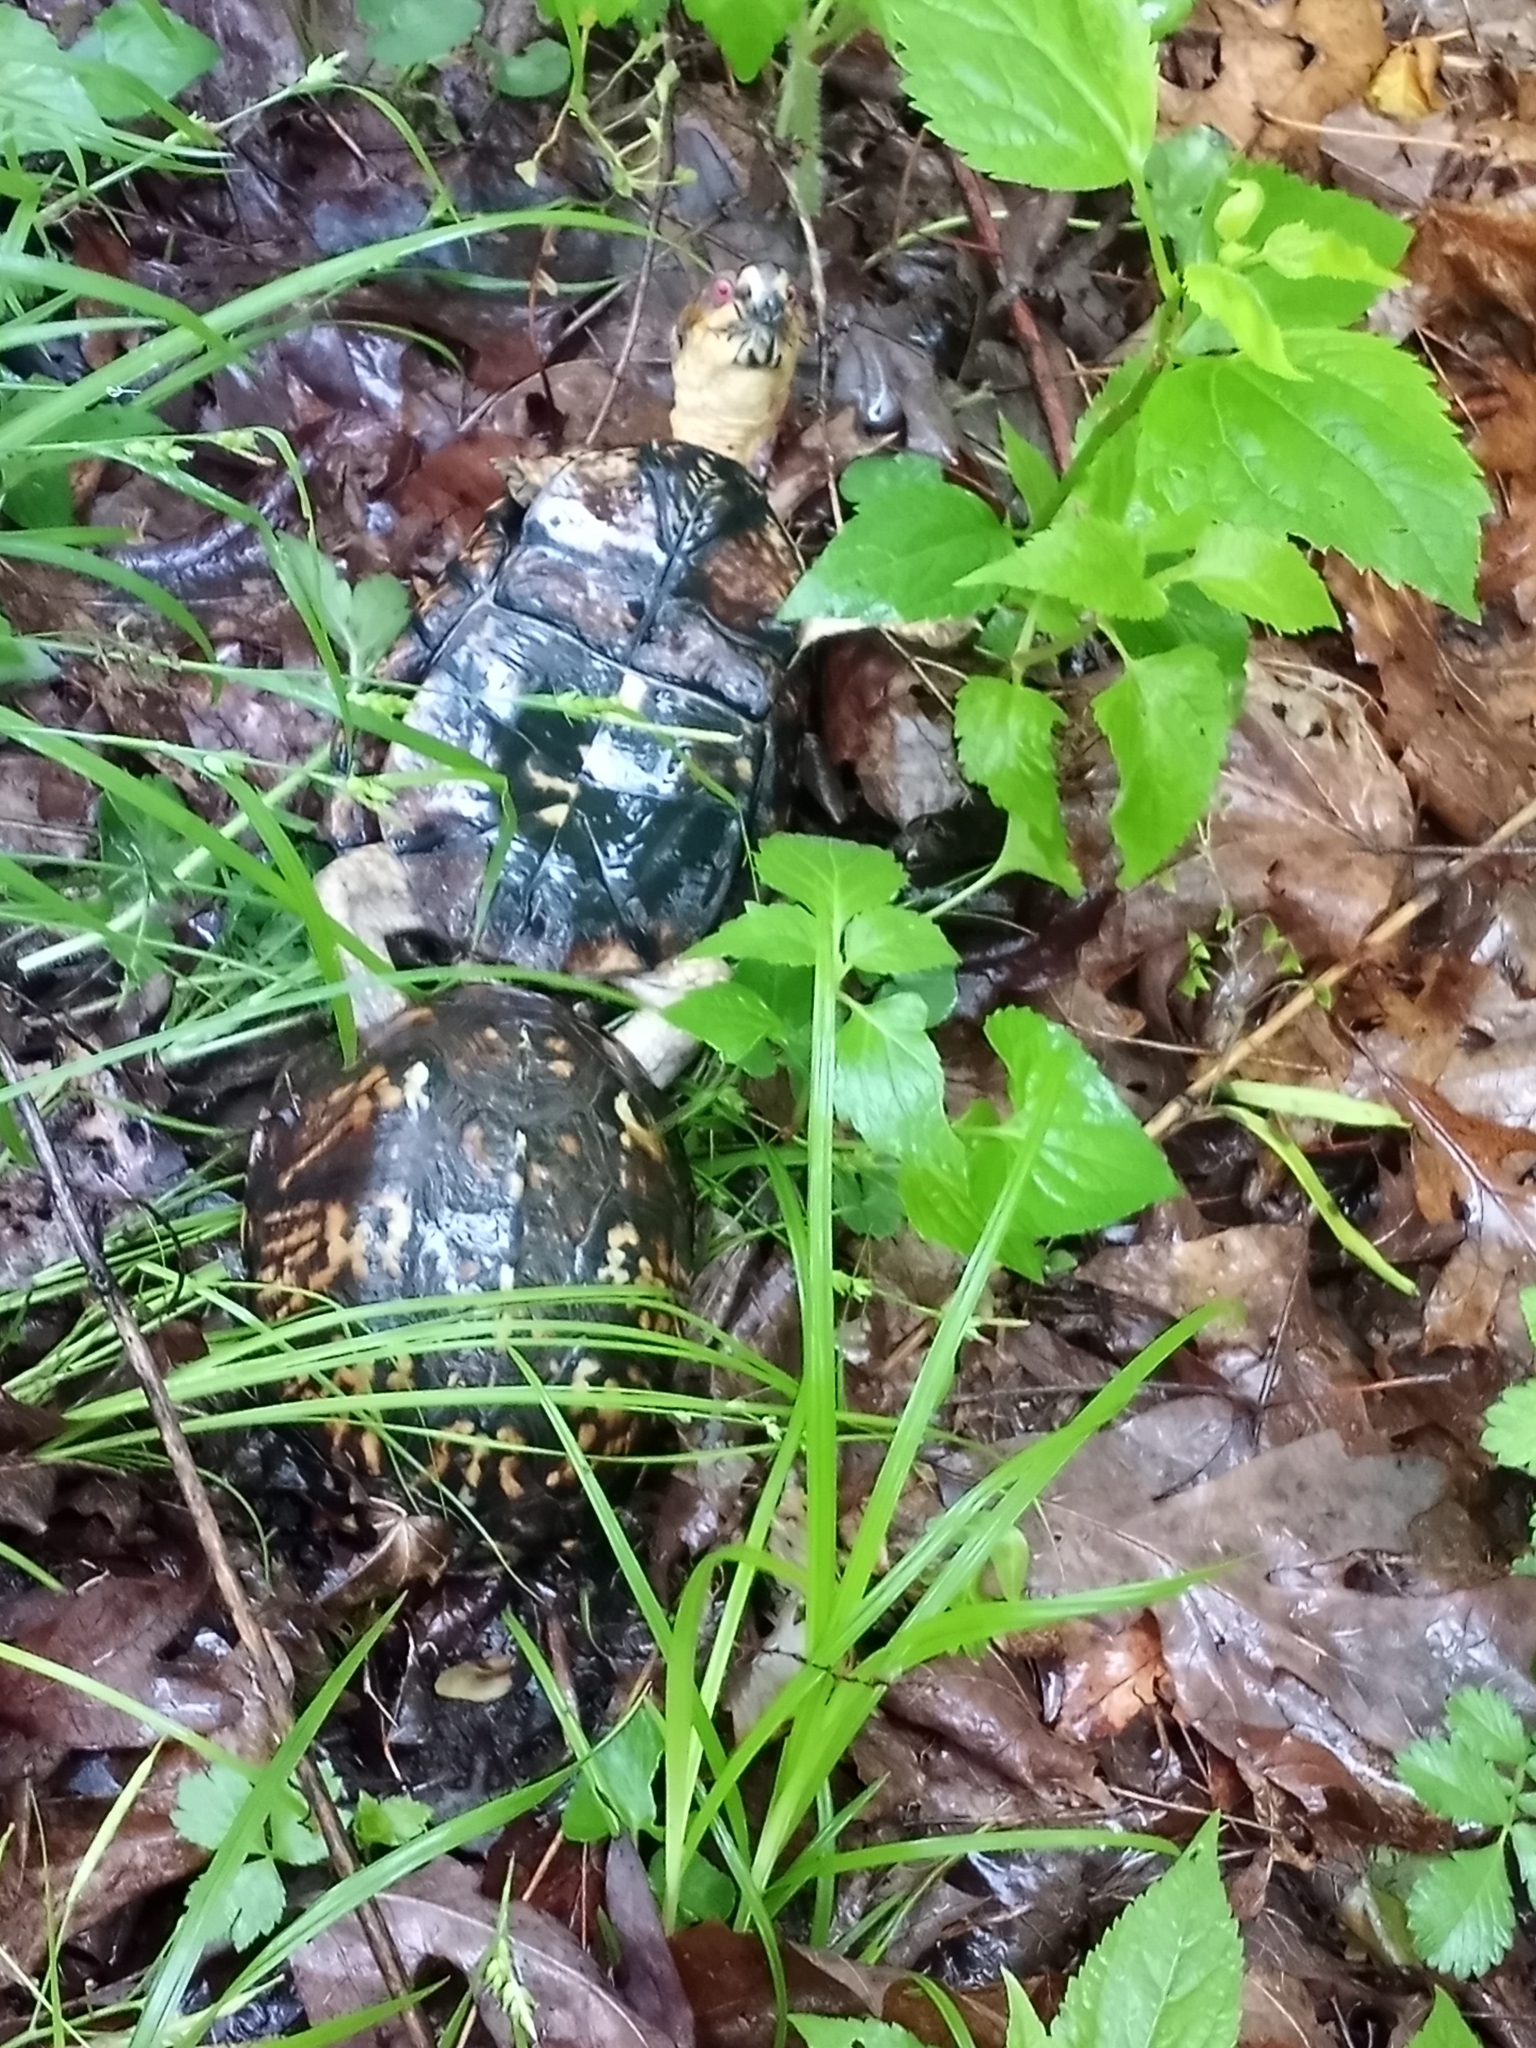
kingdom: Animalia
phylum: Chordata
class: Testudines
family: Emydidae
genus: Terrapene
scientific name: Terrapene carolina
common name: Common box turtle
